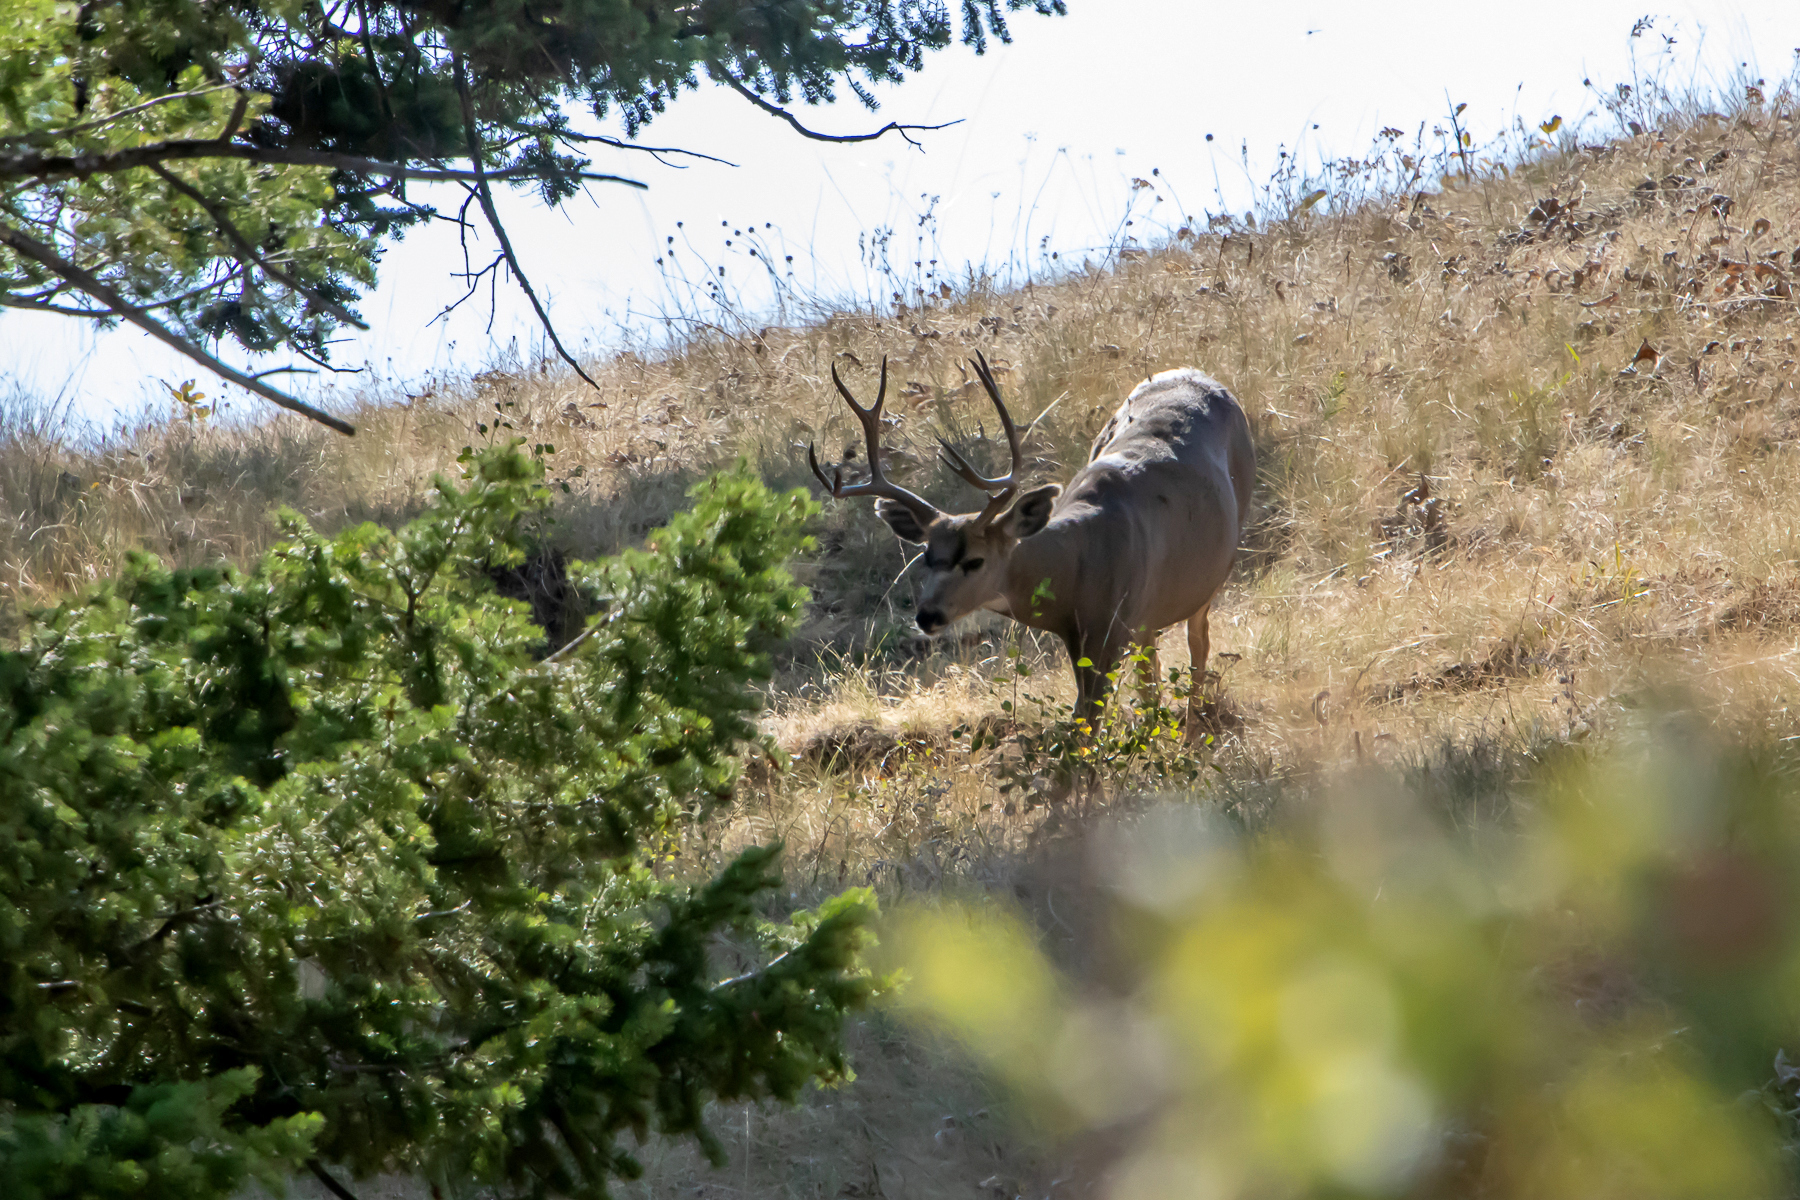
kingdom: Animalia
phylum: Chordata
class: Mammalia
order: Artiodactyla
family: Cervidae
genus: Odocoileus
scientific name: Odocoileus hemionus
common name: Mule deer
